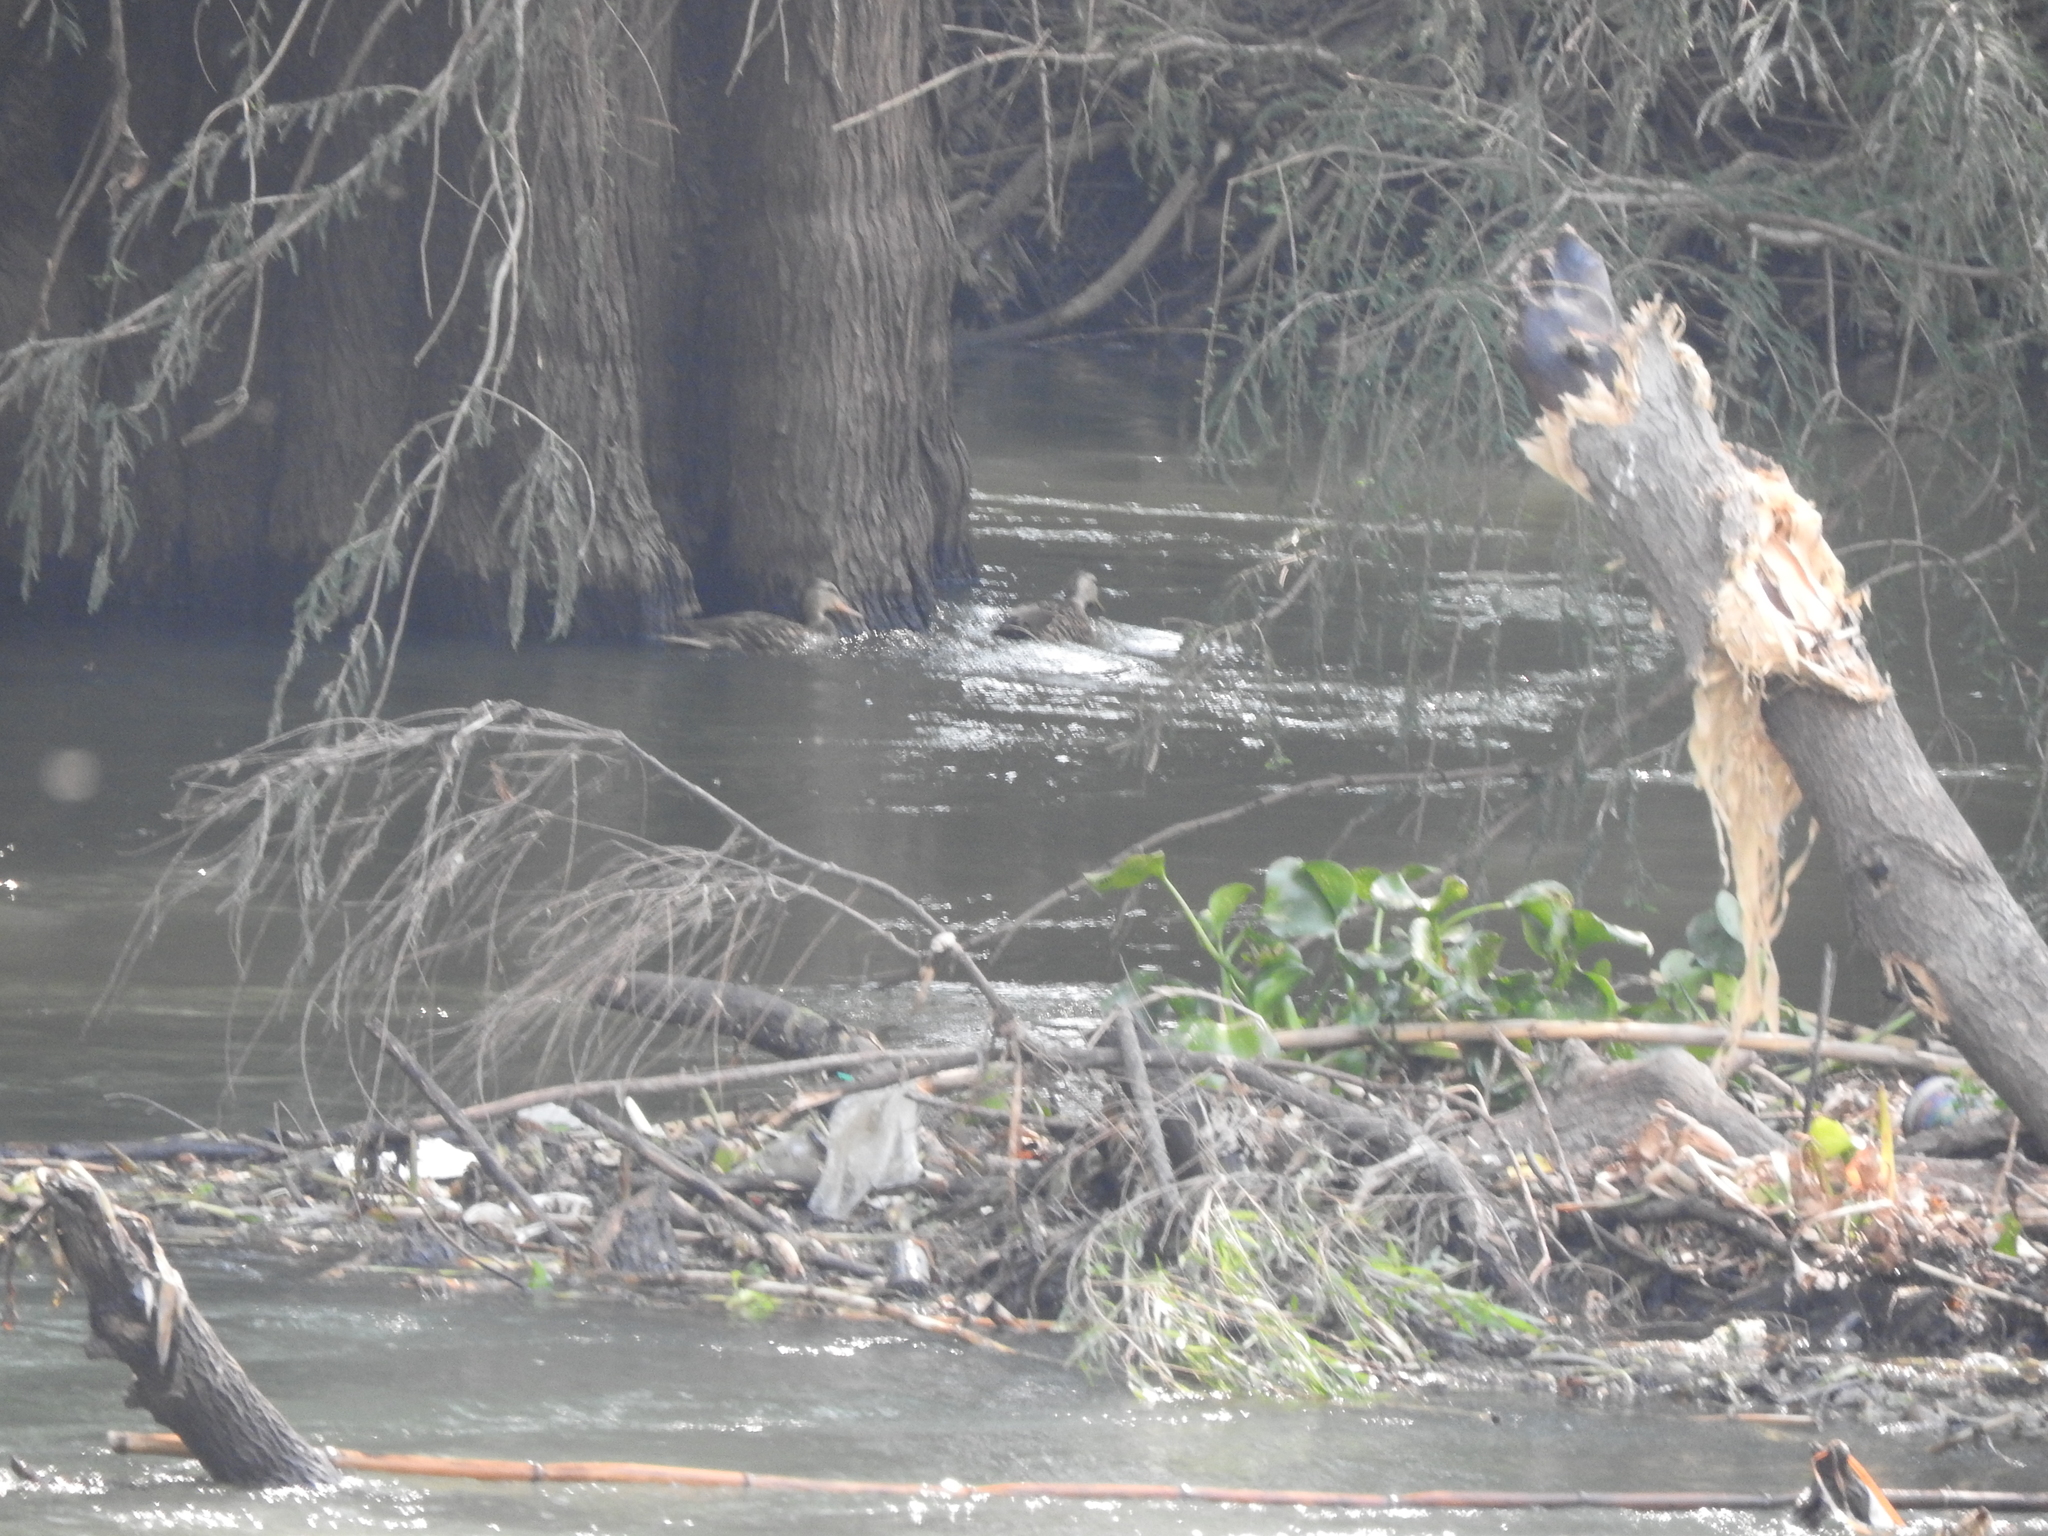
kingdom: Animalia
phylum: Chordata
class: Aves
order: Anseriformes
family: Anatidae
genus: Anas
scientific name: Anas diazi
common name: Mexican duck
